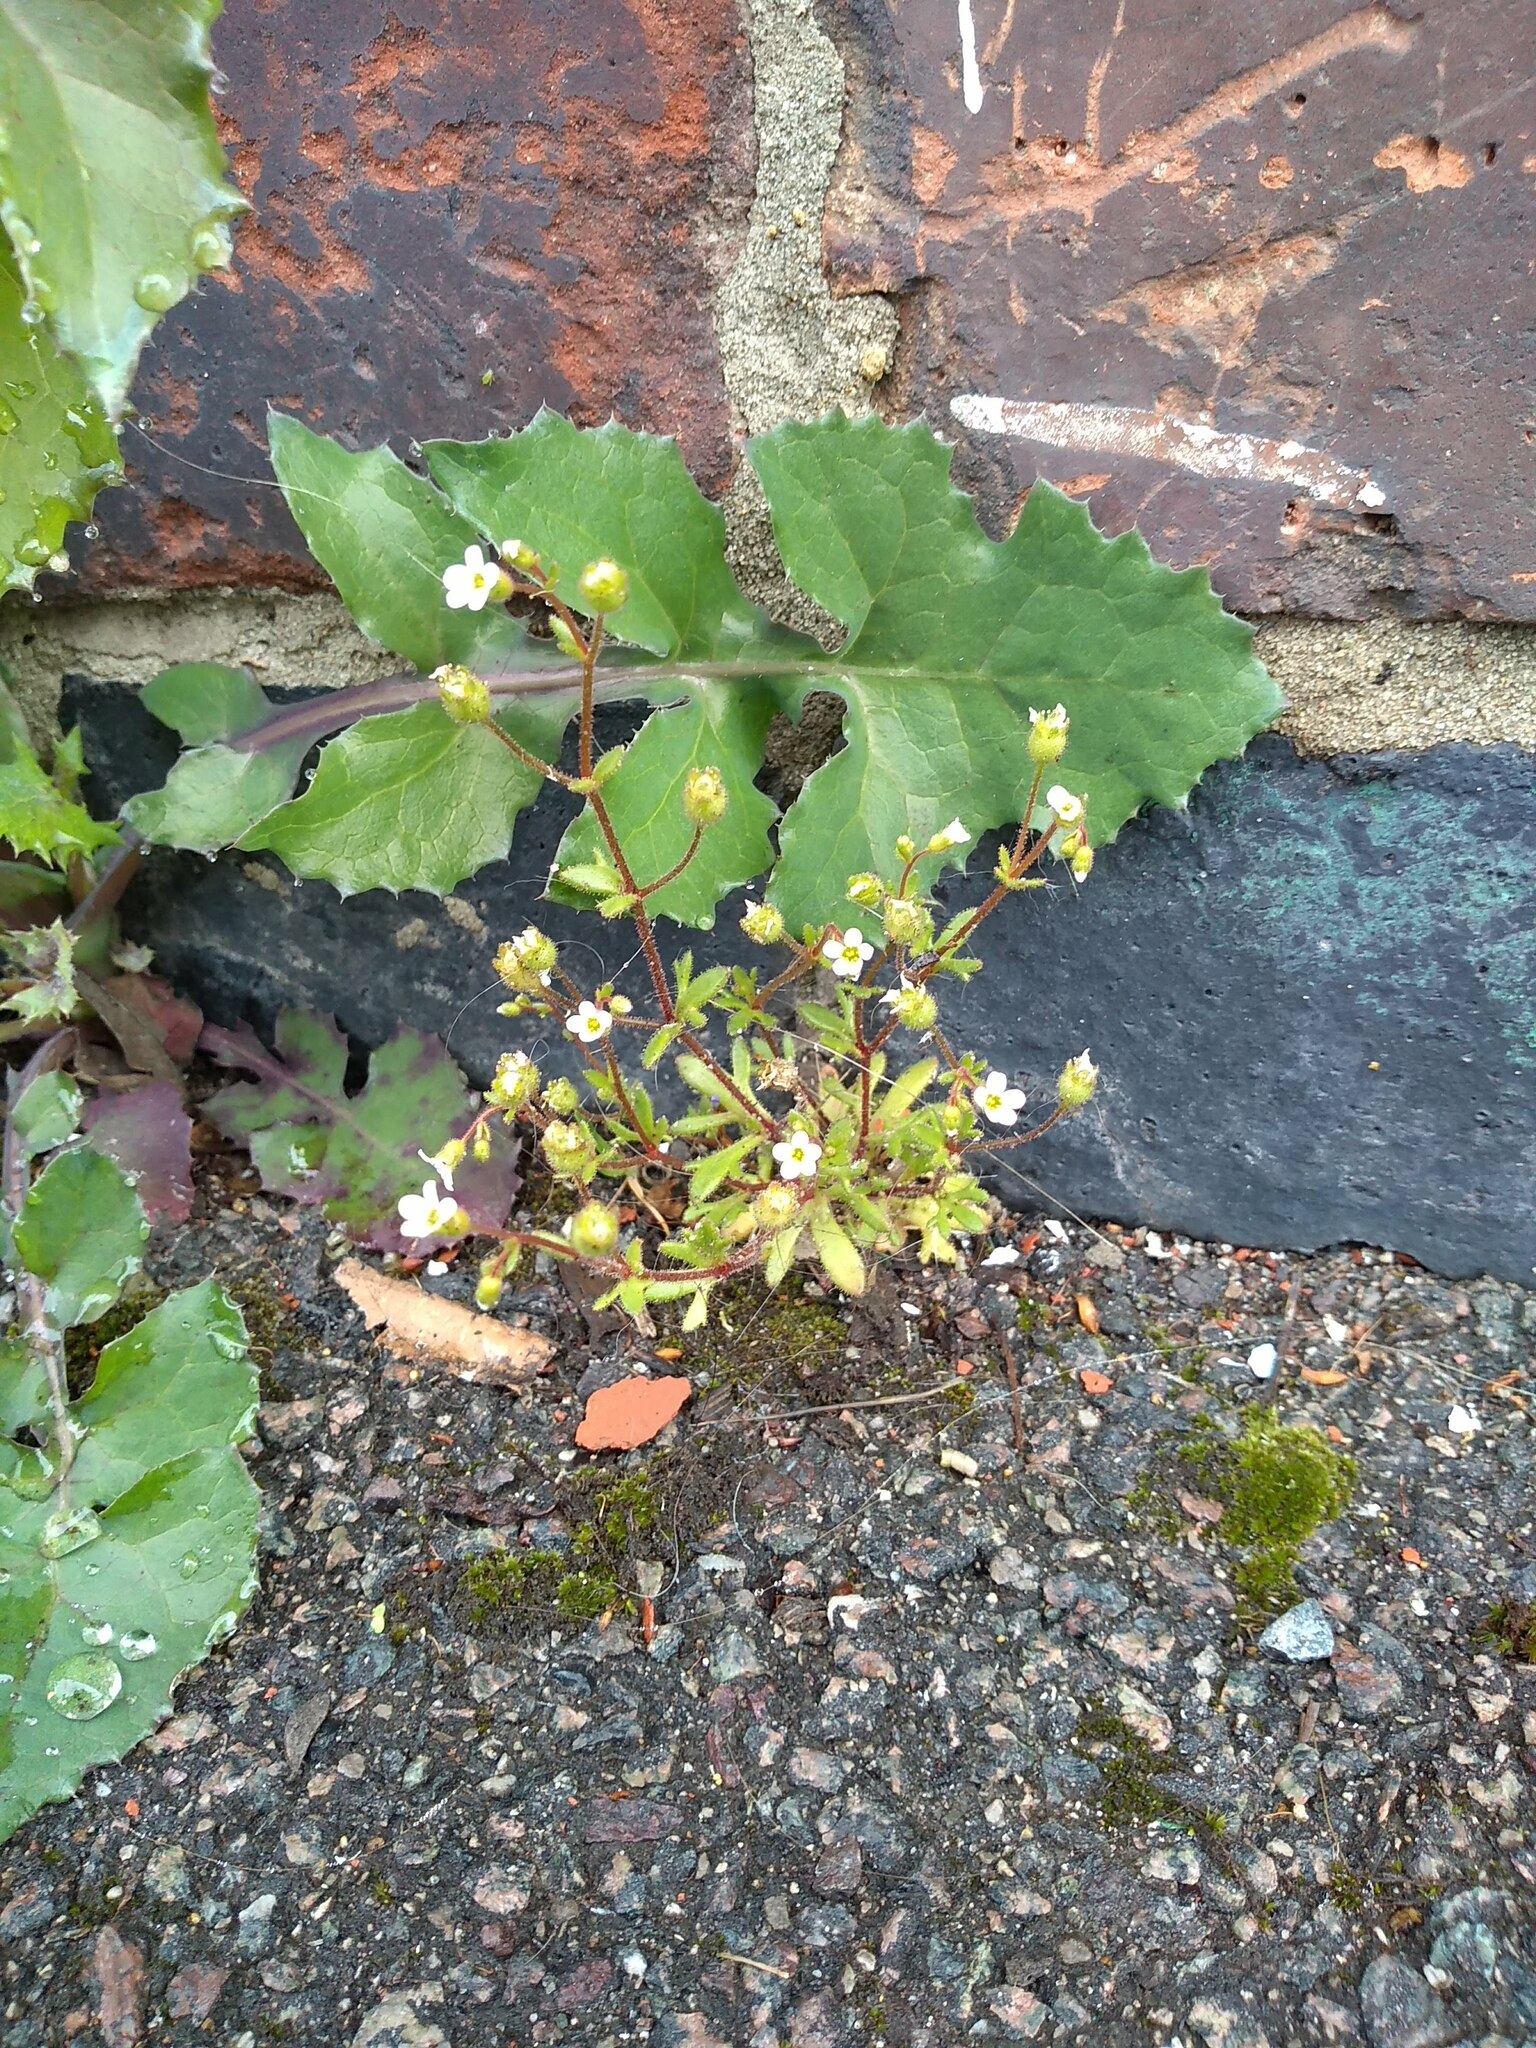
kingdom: Plantae
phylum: Tracheophyta
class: Magnoliopsida
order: Saxifragales
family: Saxifragaceae
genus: Saxifraga
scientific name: Saxifraga tridactylites
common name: Rue-leaved saxifrage
